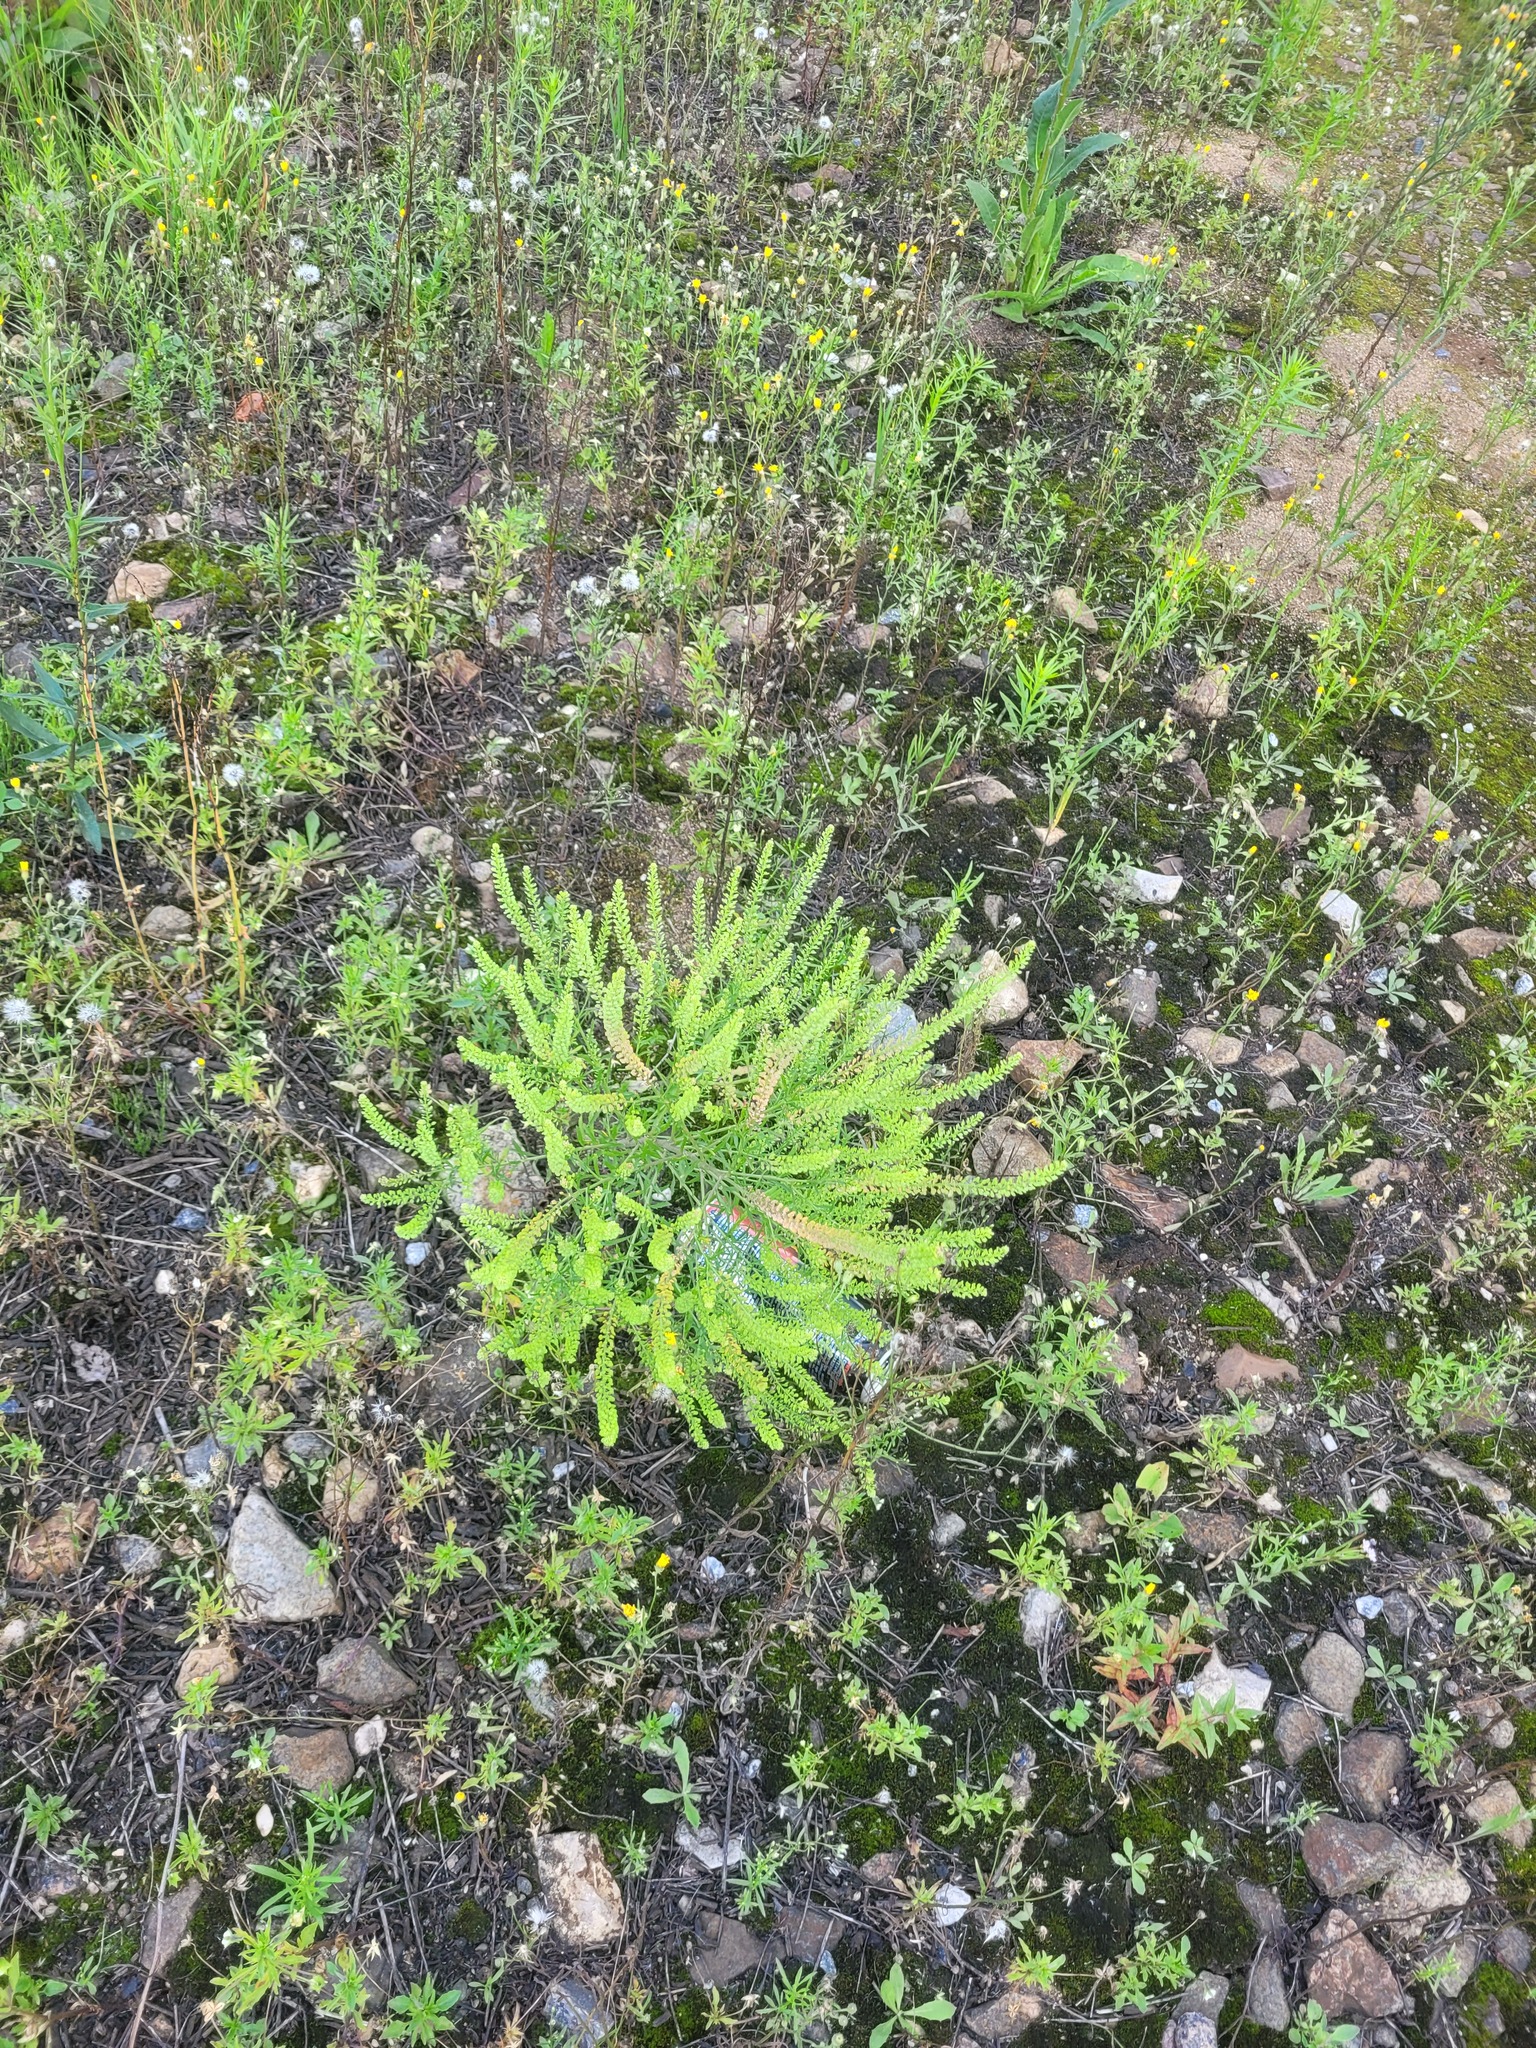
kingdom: Plantae
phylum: Tracheophyta
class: Magnoliopsida
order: Brassicales
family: Brassicaceae
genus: Lepidium
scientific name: Lepidium densiflorum
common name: Miner's pepperwort
